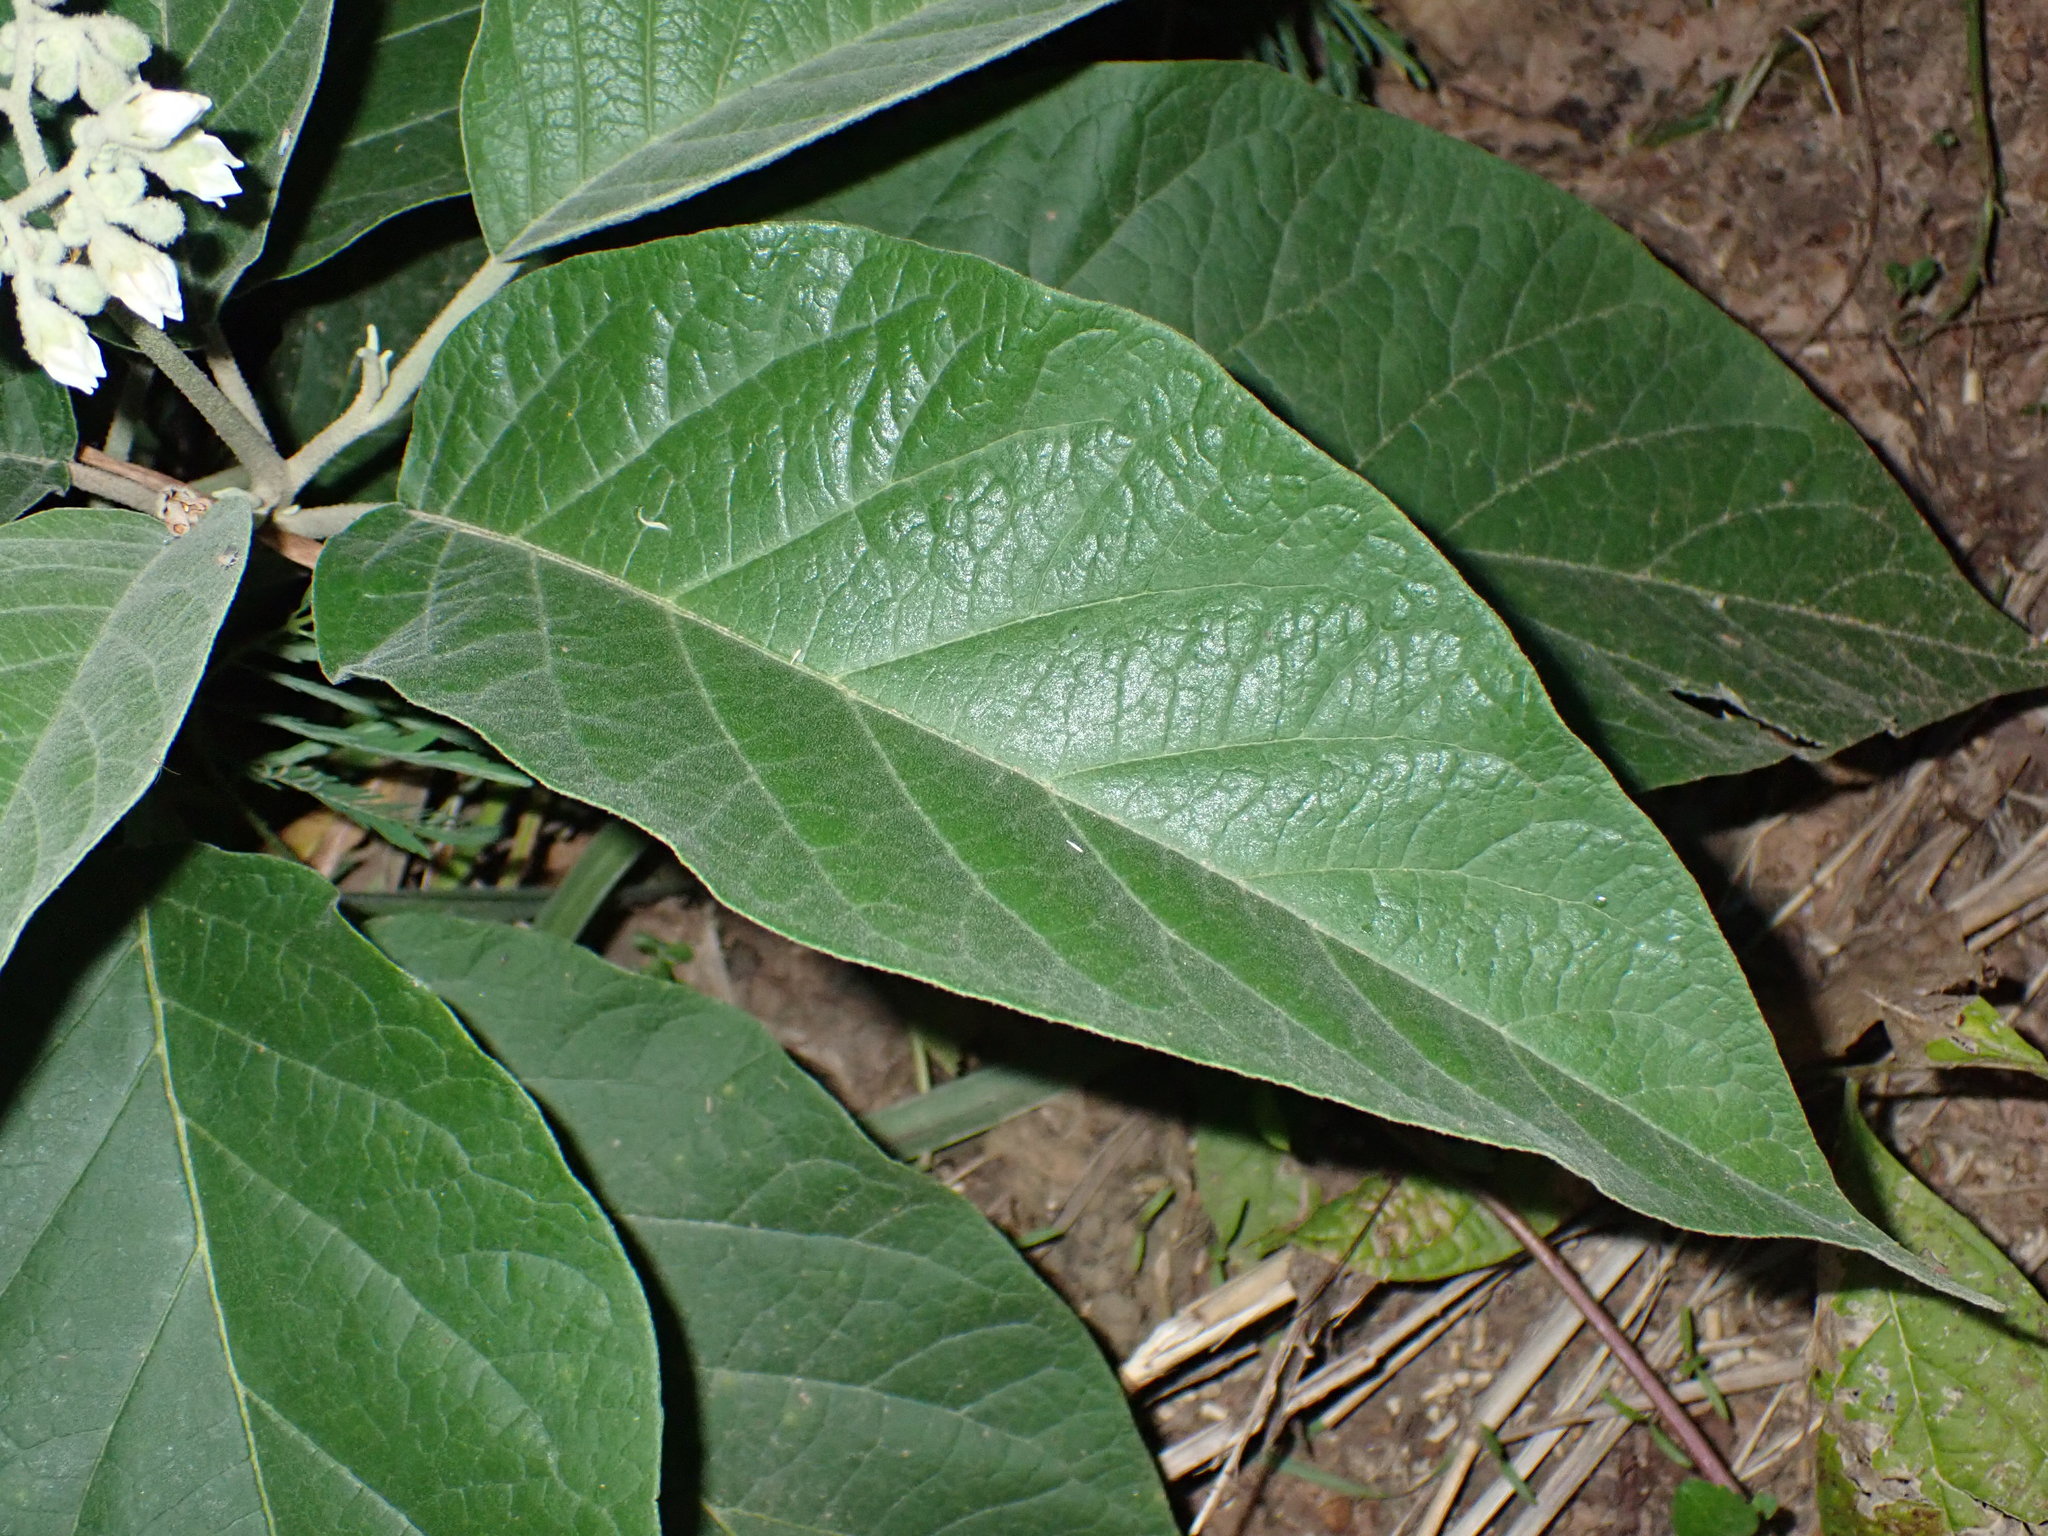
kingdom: Plantae
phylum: Tracheophyta
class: Magnoliopsida
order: Solanales
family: Solanaceae
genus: Solanum
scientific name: Solanum erianthum
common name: Tobacco-tree
